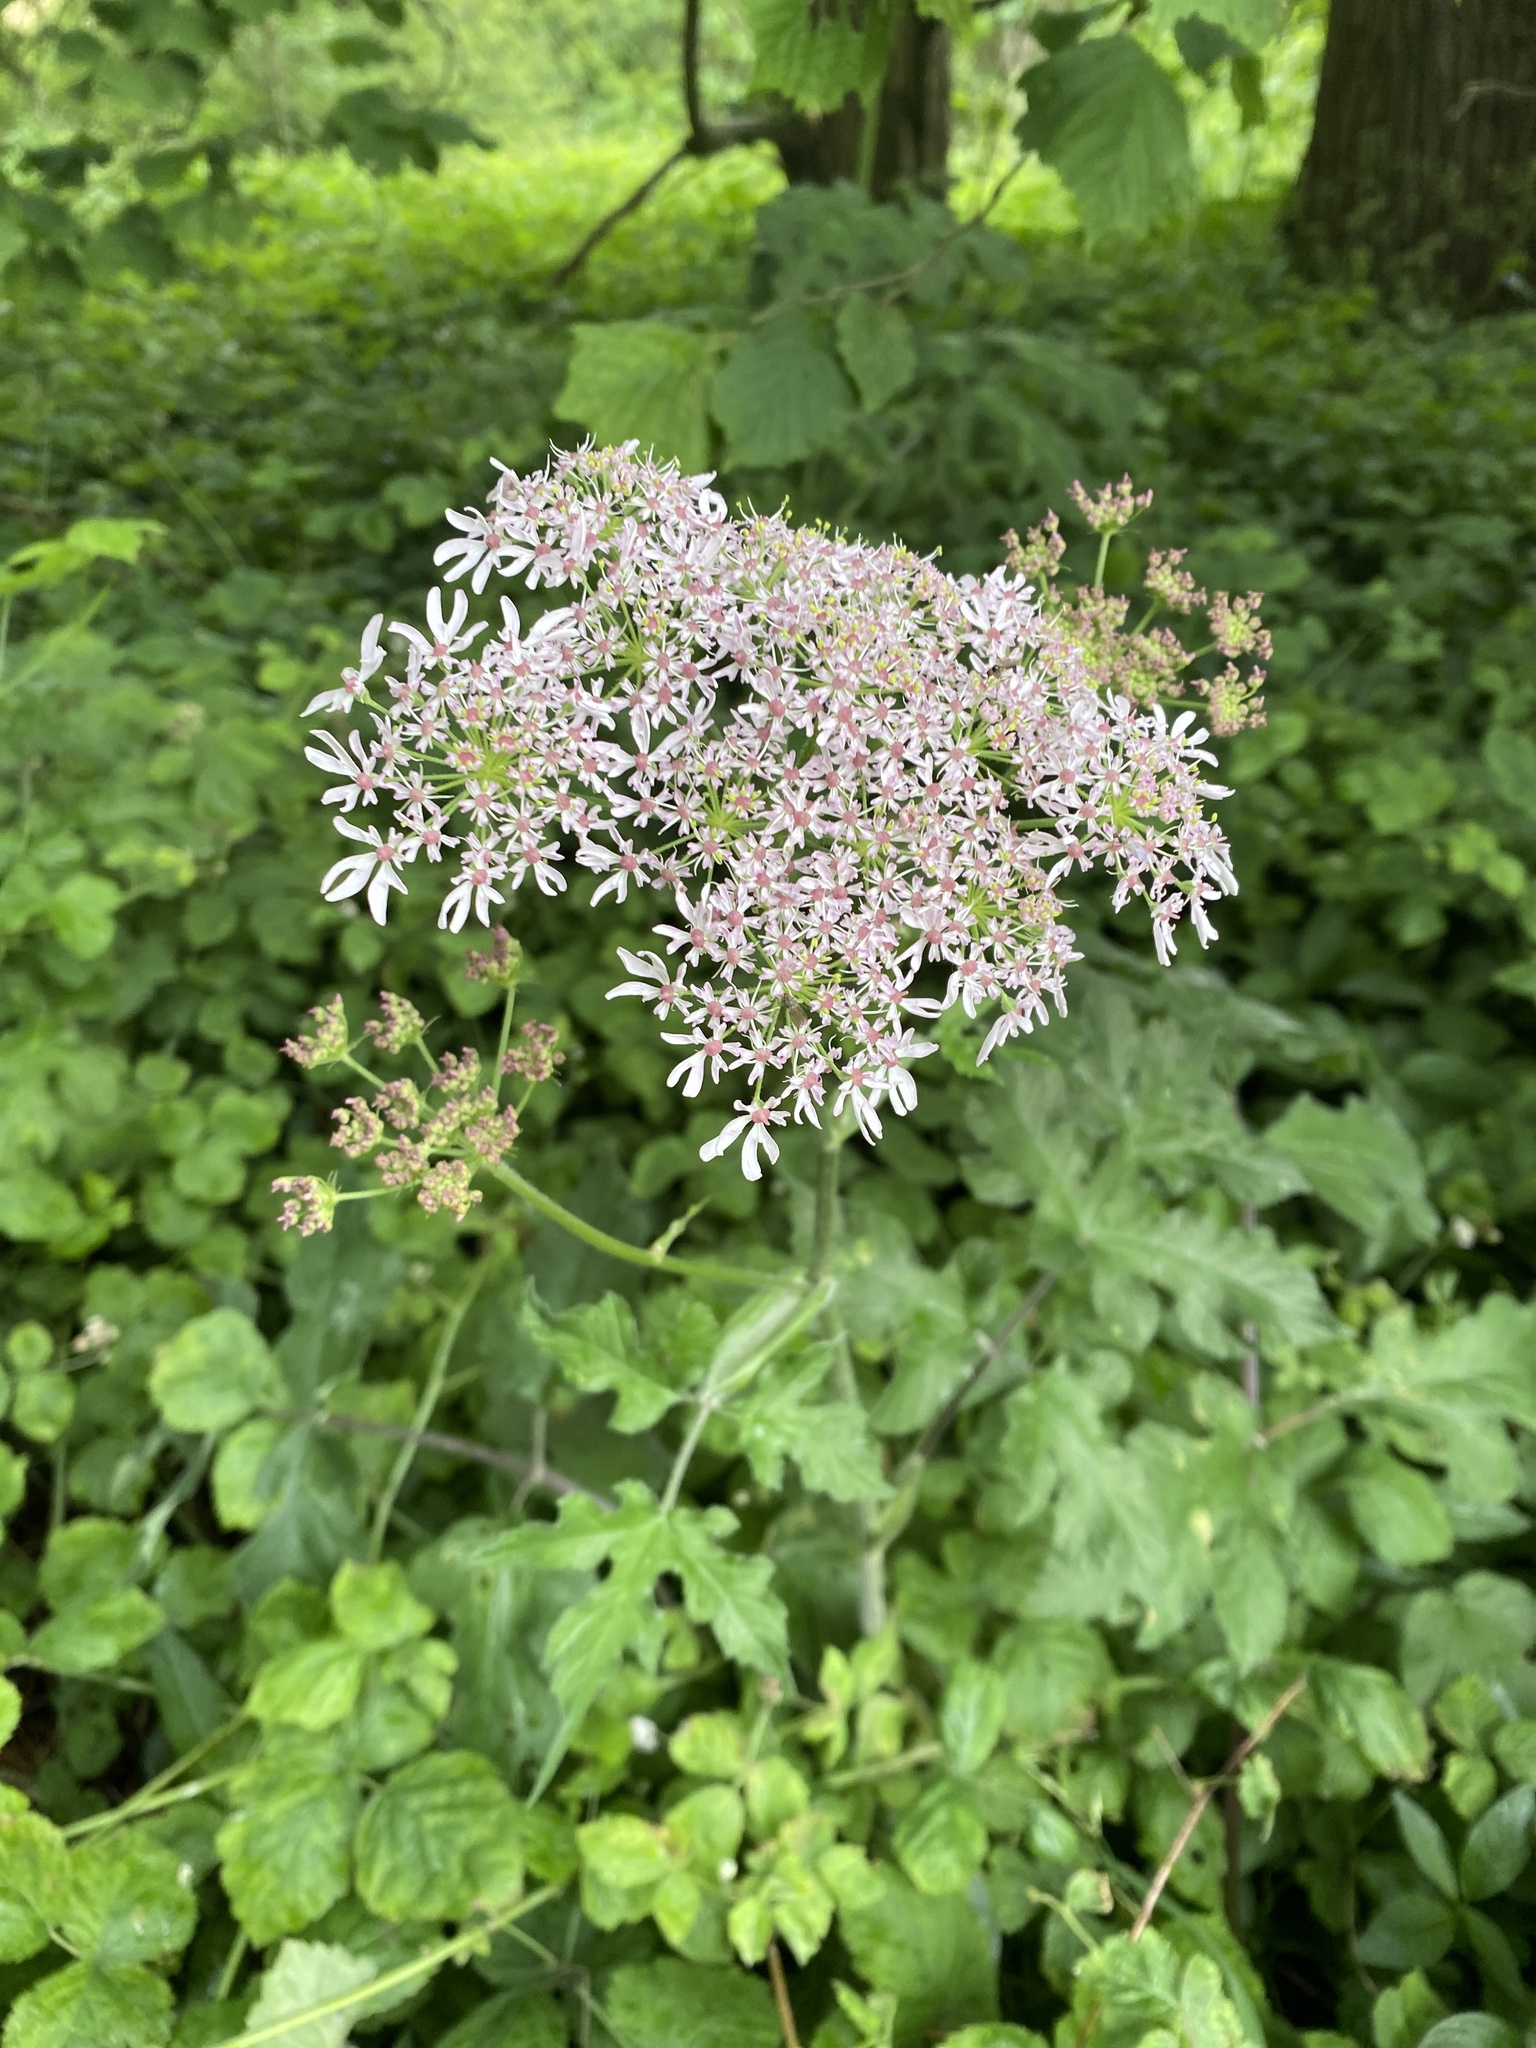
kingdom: Plantae
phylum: Tracheophyta
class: Magnoliopsida
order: Apiales
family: Apiaceae
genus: Heracleum
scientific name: Heracleum sphondylium
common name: Hogweed
